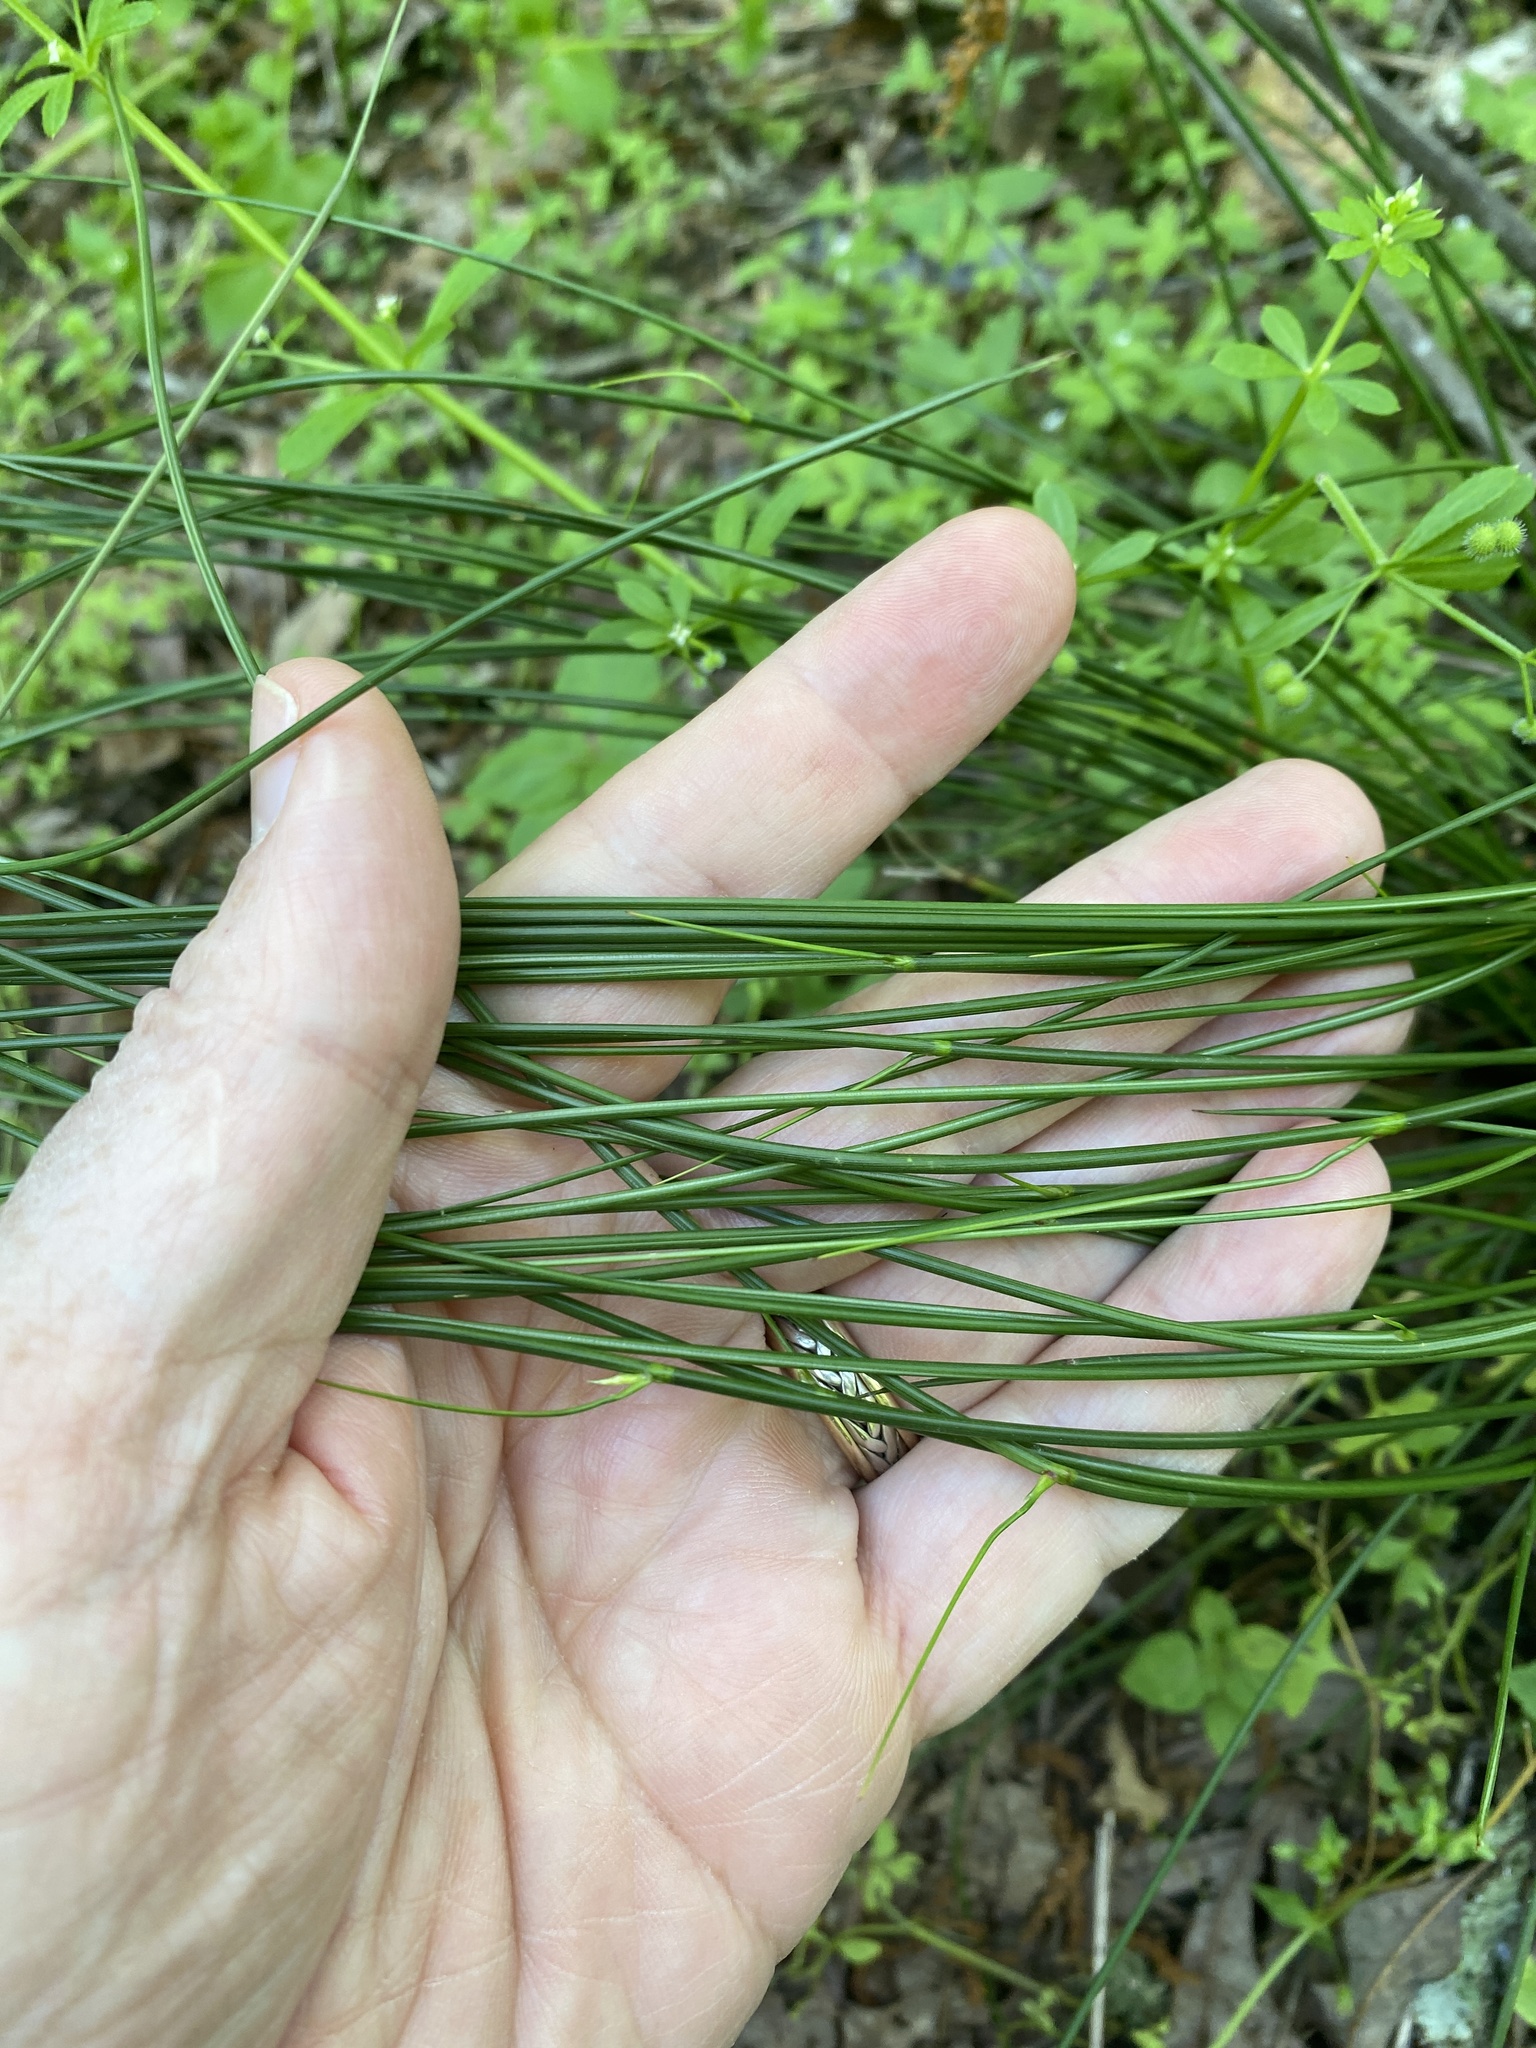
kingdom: Plantae
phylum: Tracheophyta
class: Liliopsida
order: Poales
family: Juncaceae
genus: Juncus
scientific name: Juncus coriaceus
